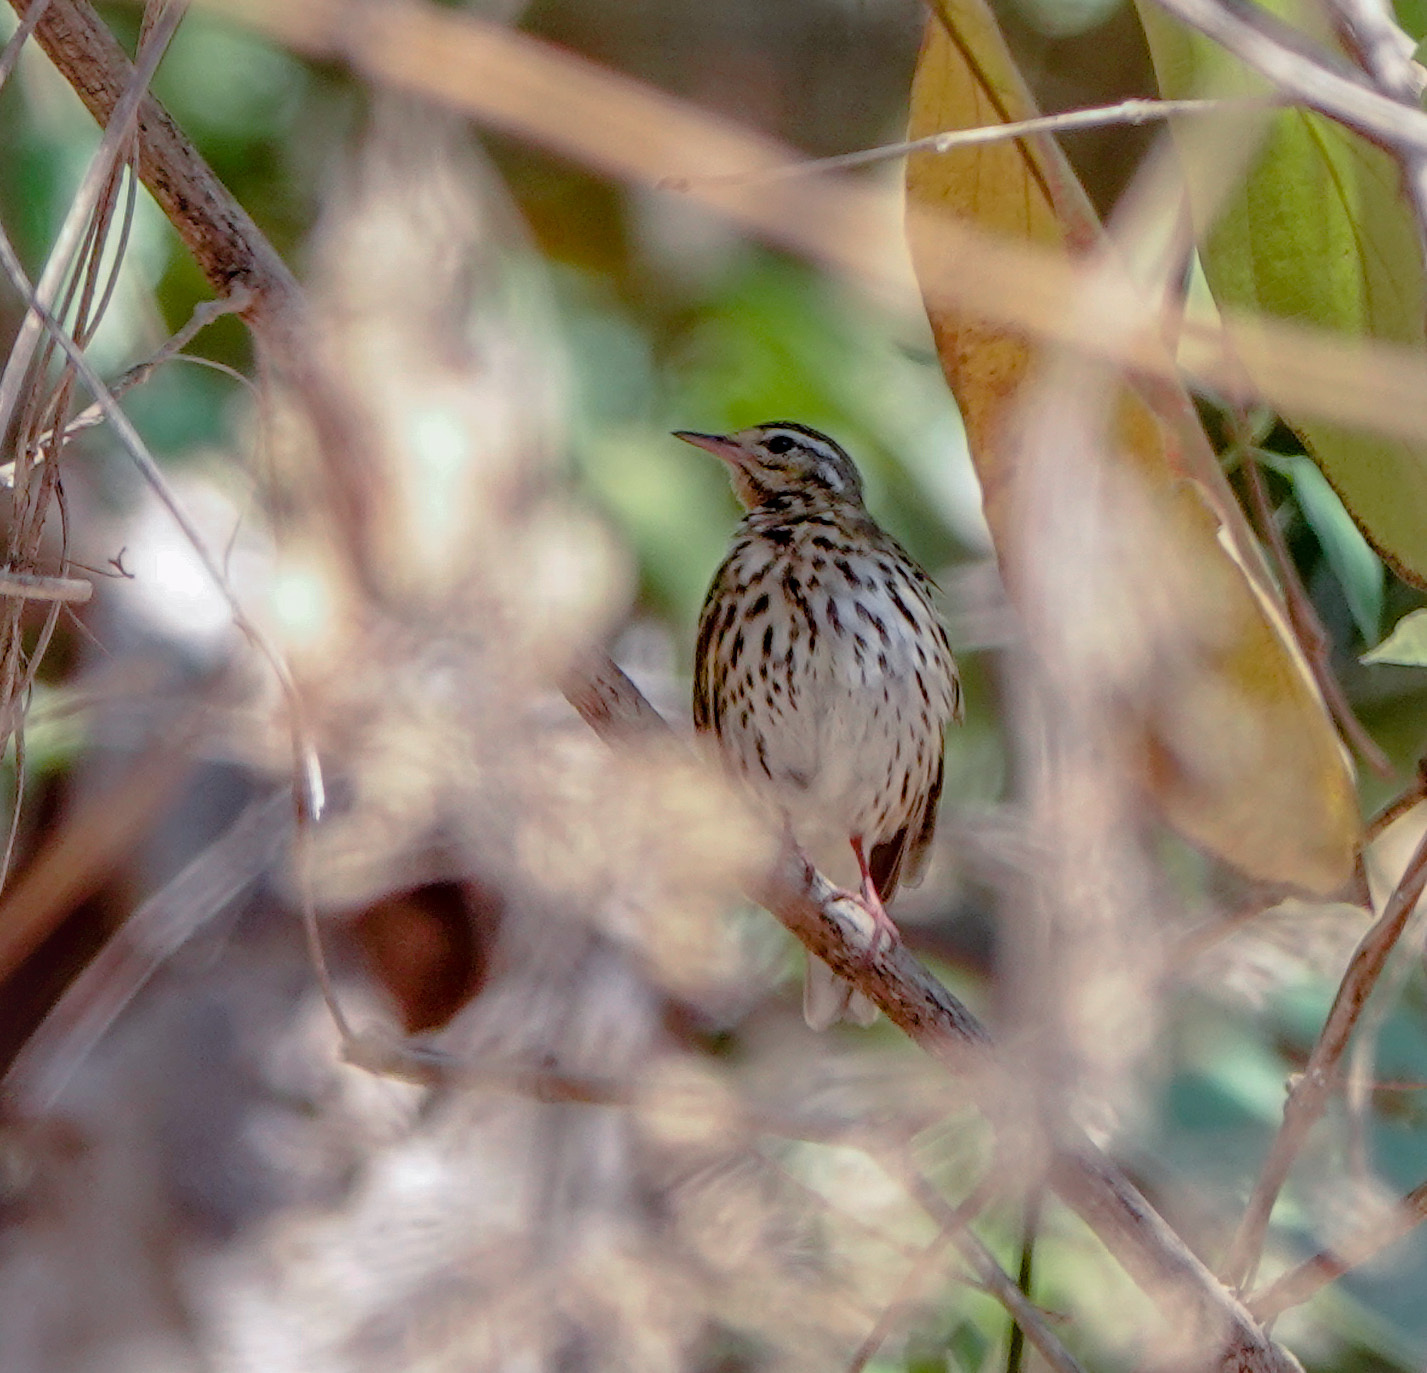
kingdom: Animalia
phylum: Chordata
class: Aves
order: Passeriformes
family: Motacillidae
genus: Anthus
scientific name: Anthus hodgsoni
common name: Olive-backed pipit
